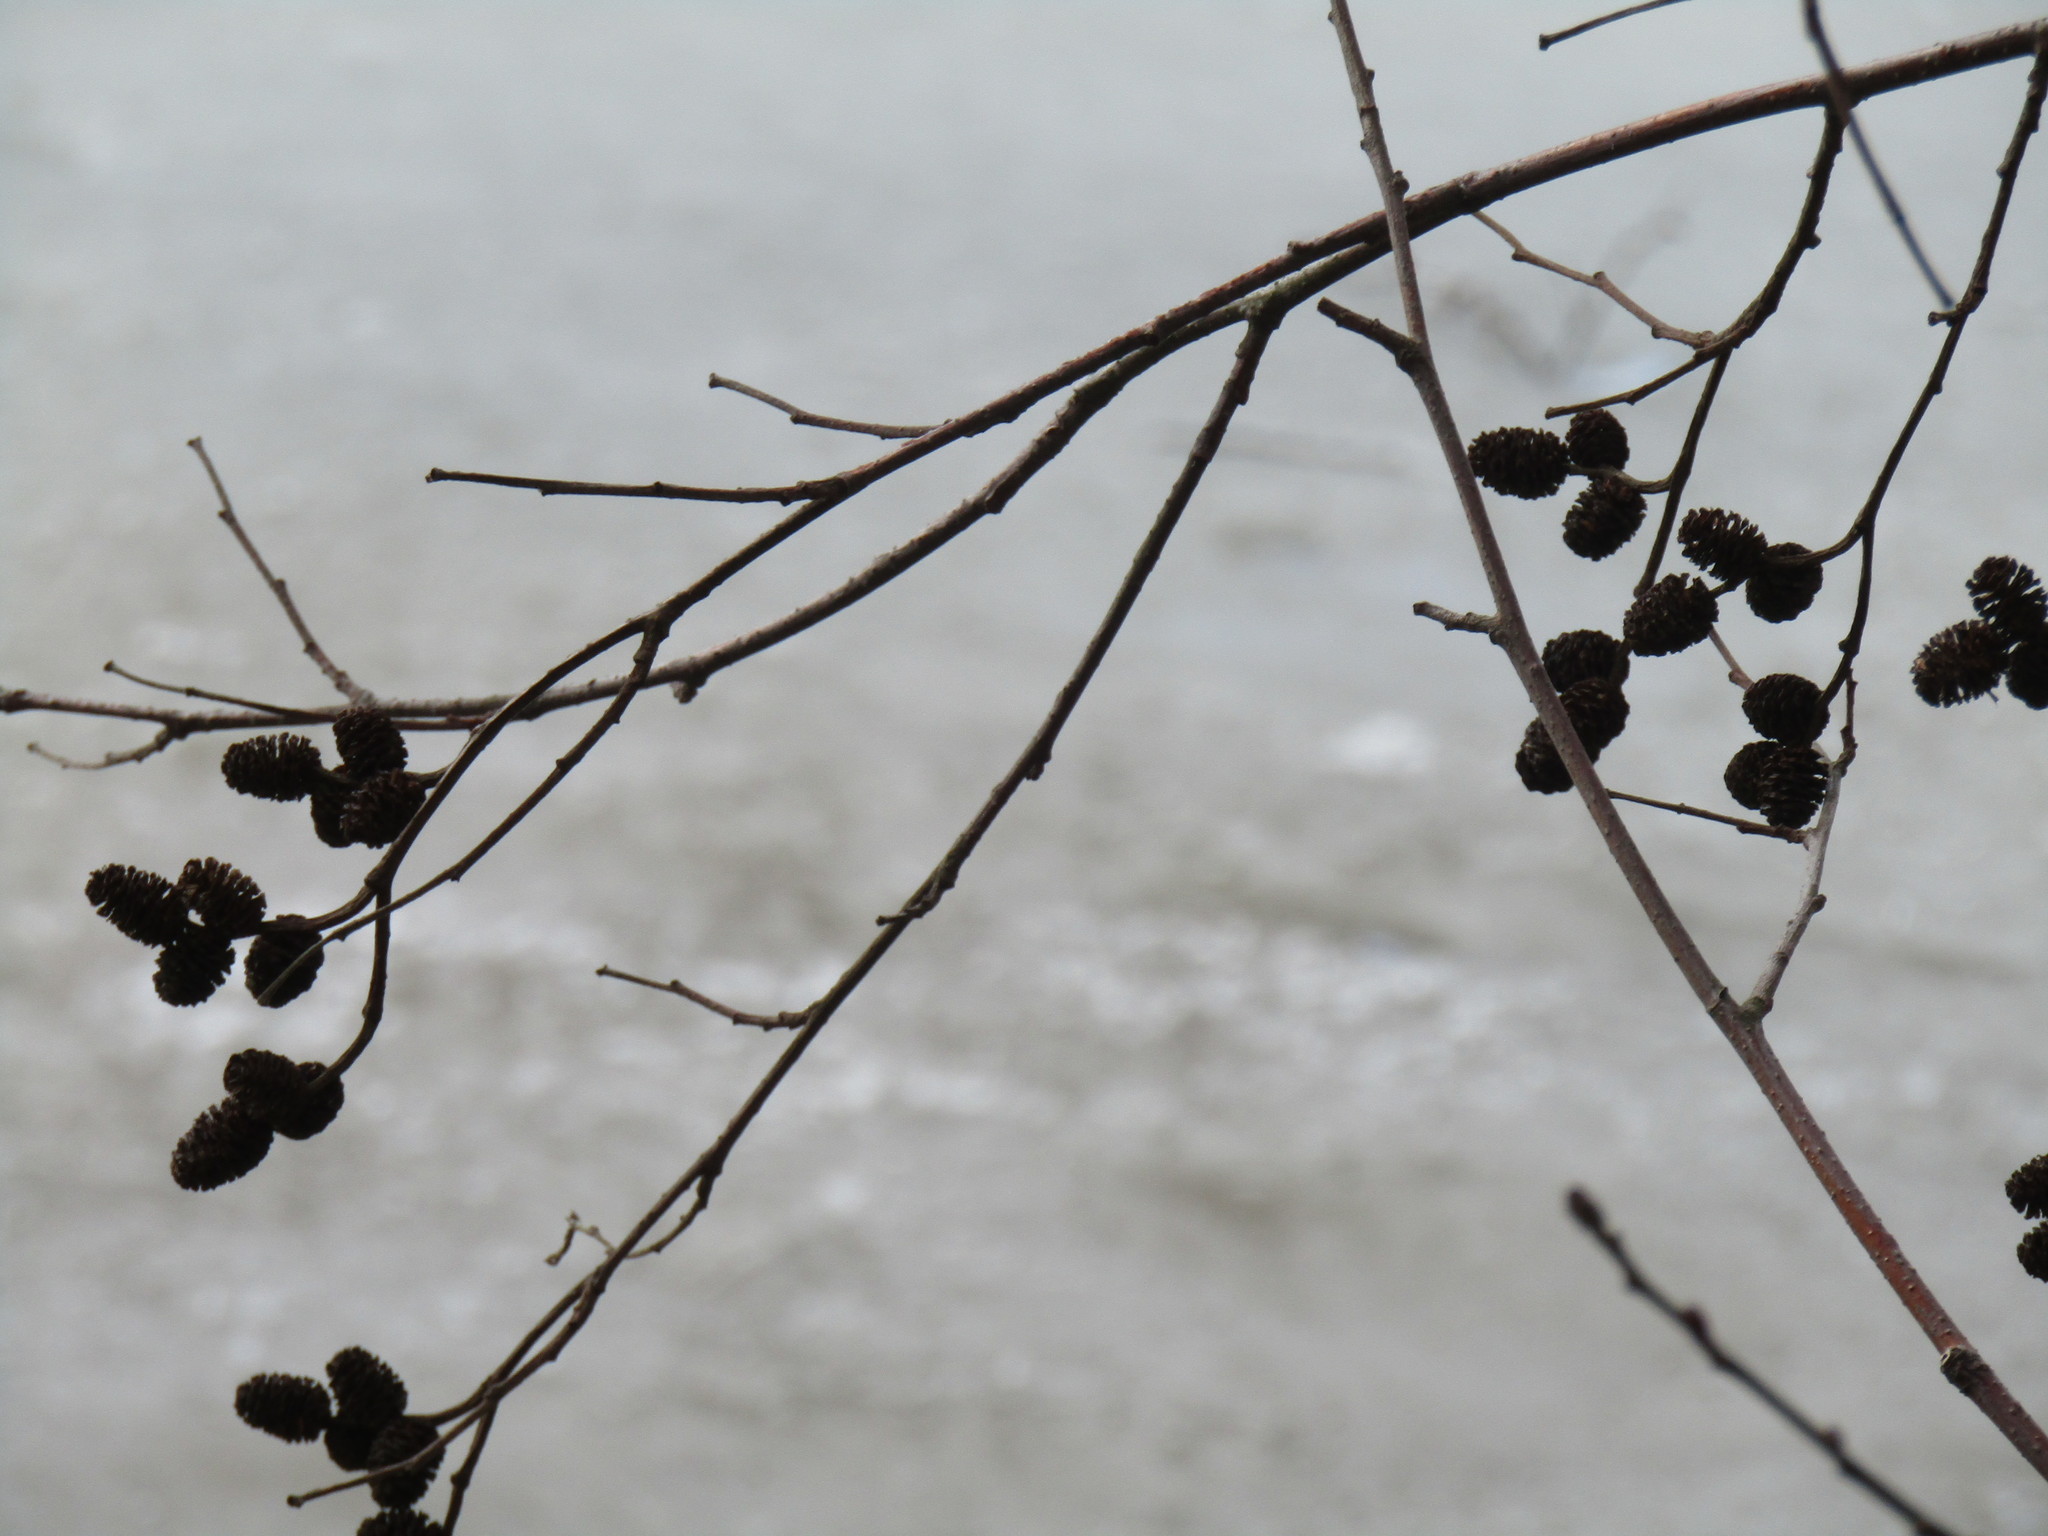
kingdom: Plantae
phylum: Tracheophyta
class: Magnoliopsida
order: Fagales
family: Betulaceae
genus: Alnus
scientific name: Alnus incana
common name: Grey alder
